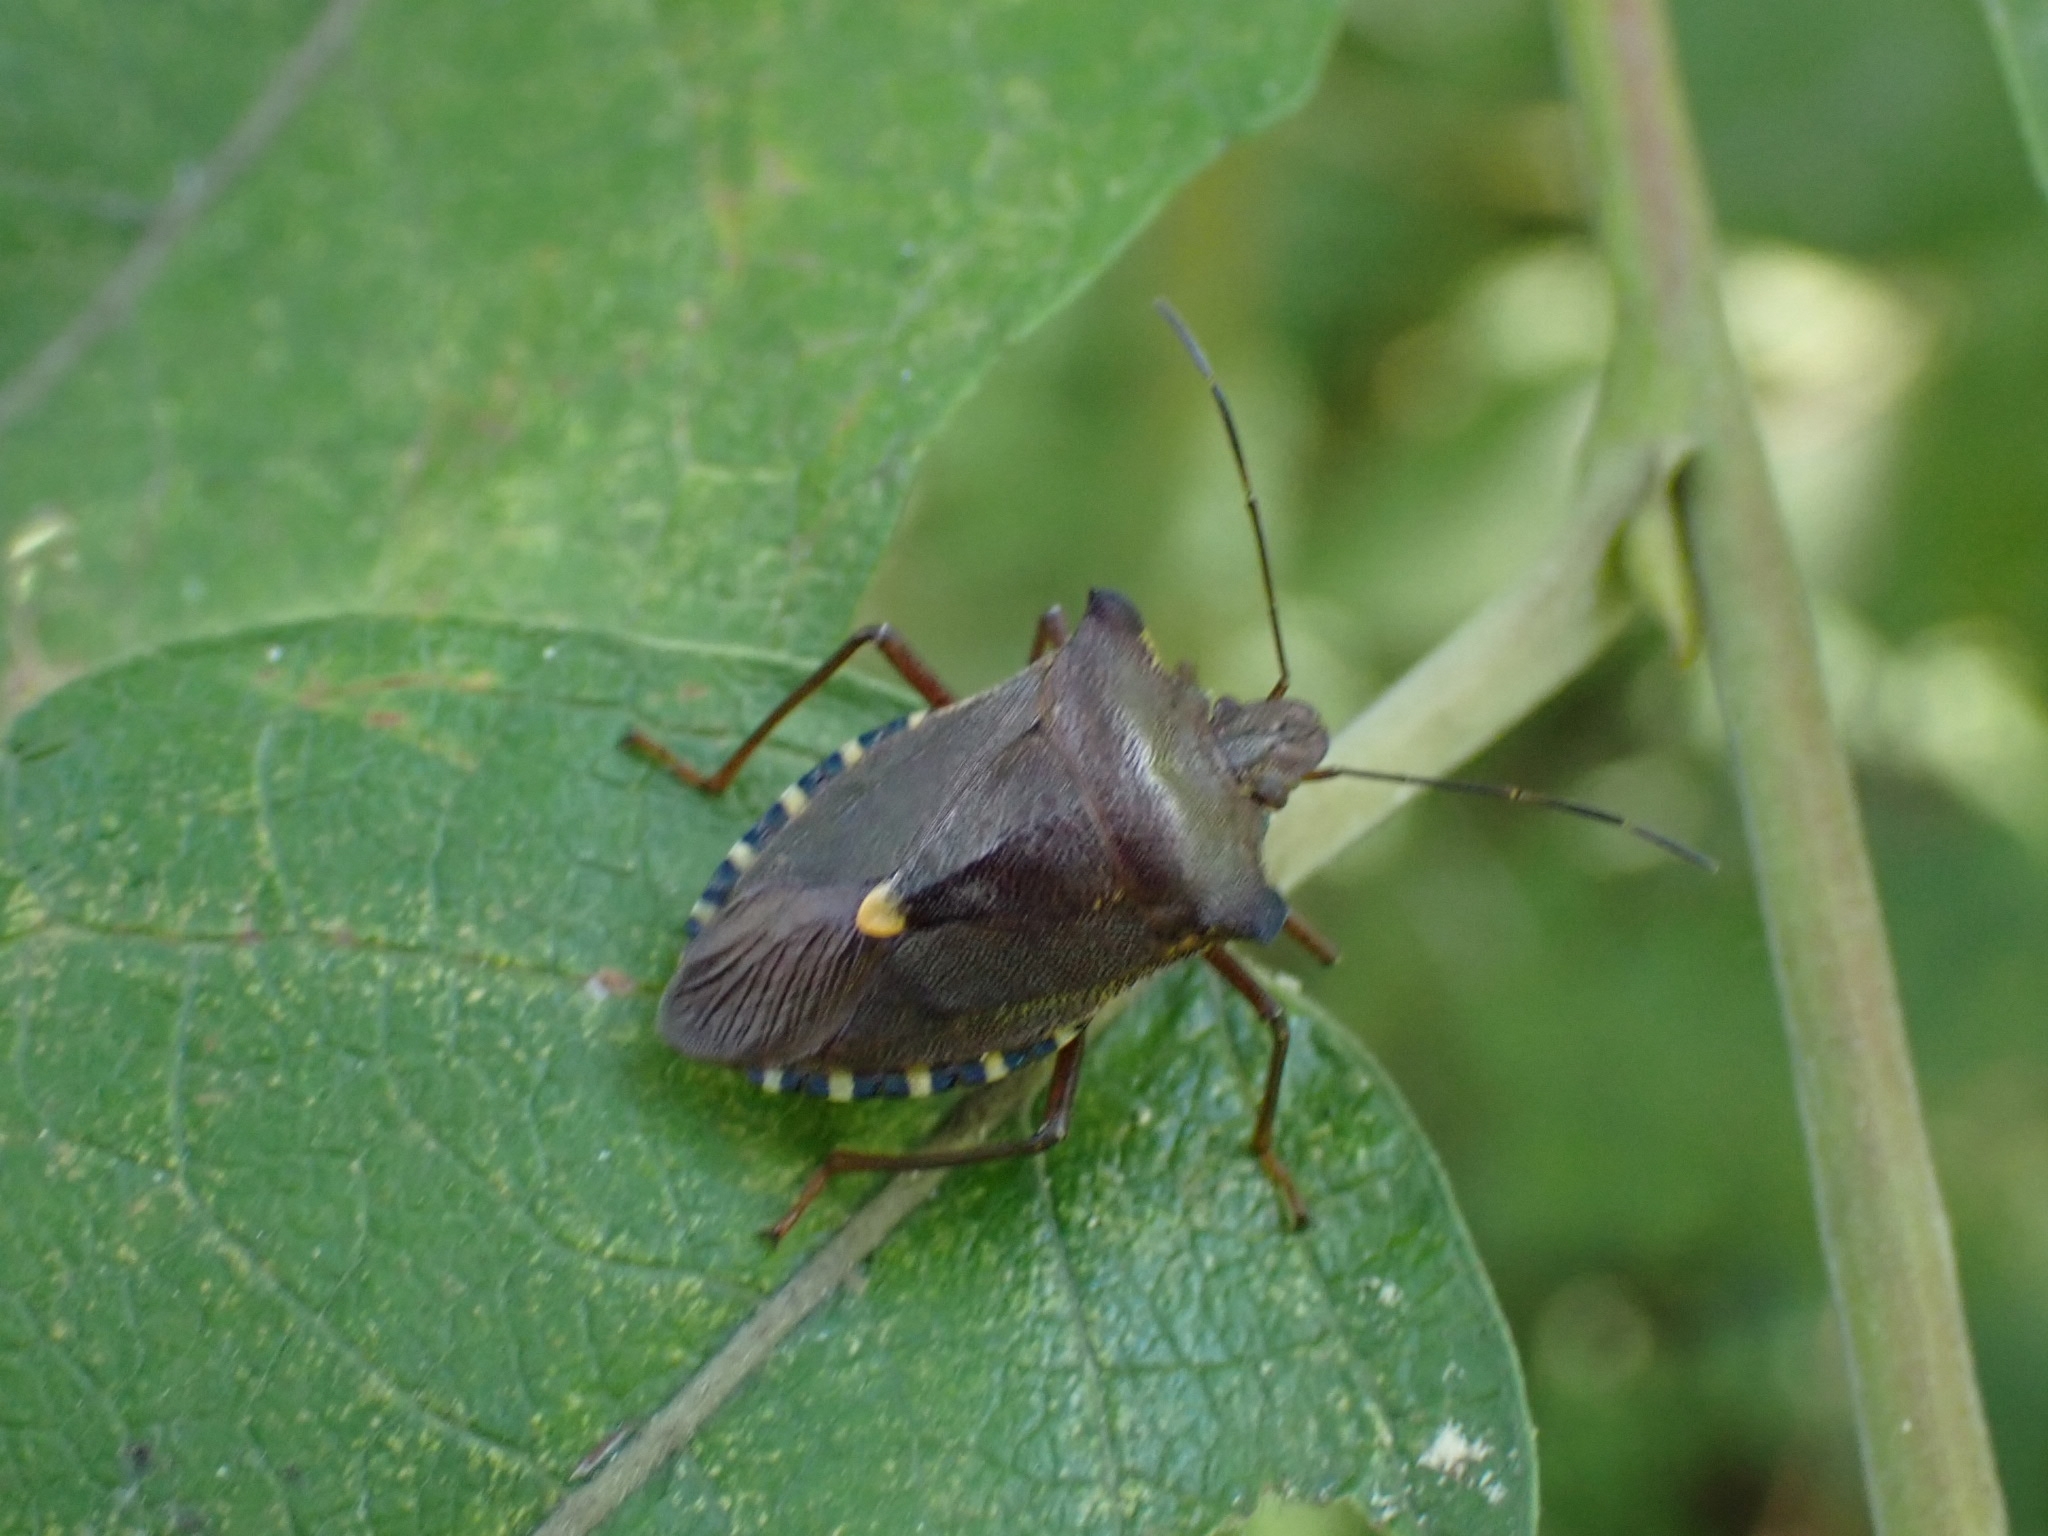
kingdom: Animalia
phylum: Arthropoda
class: Insecta
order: Hemiptera
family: Pentatomidae
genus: Pentatoma
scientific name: Pentatoma rufipes
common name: Forest bug
